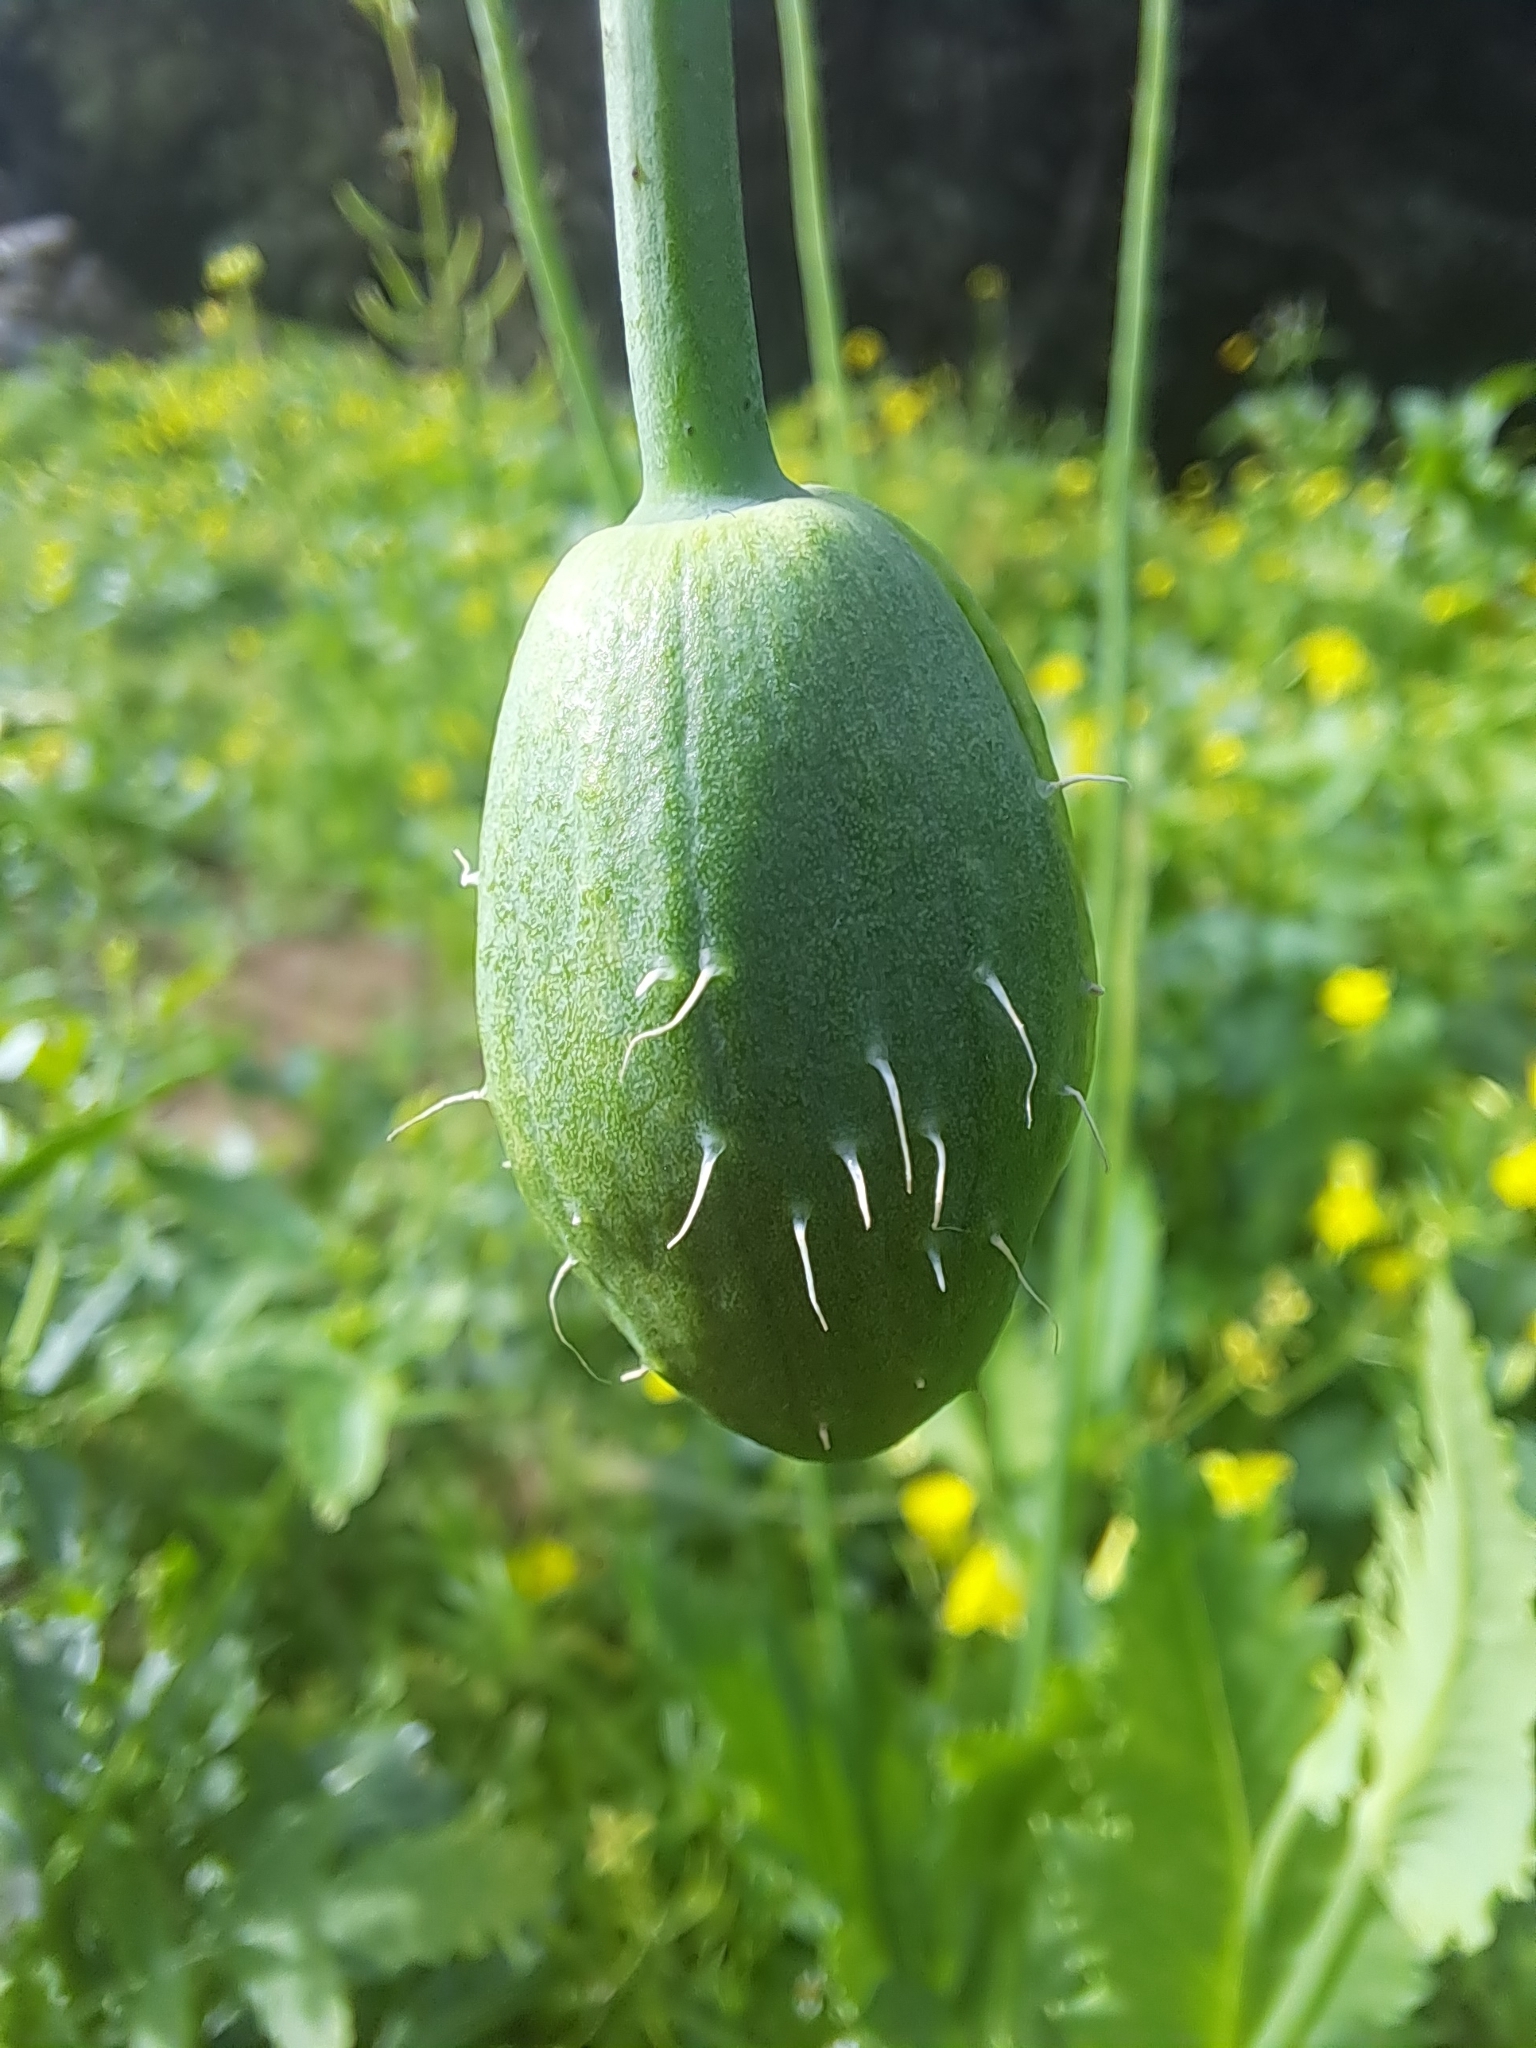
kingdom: Plantae
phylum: Tracheophyta
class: Magnoliopsida
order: Ranunculales
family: Papaveraceae
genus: Papaver
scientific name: Papaver somniferum
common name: Opium poppy
